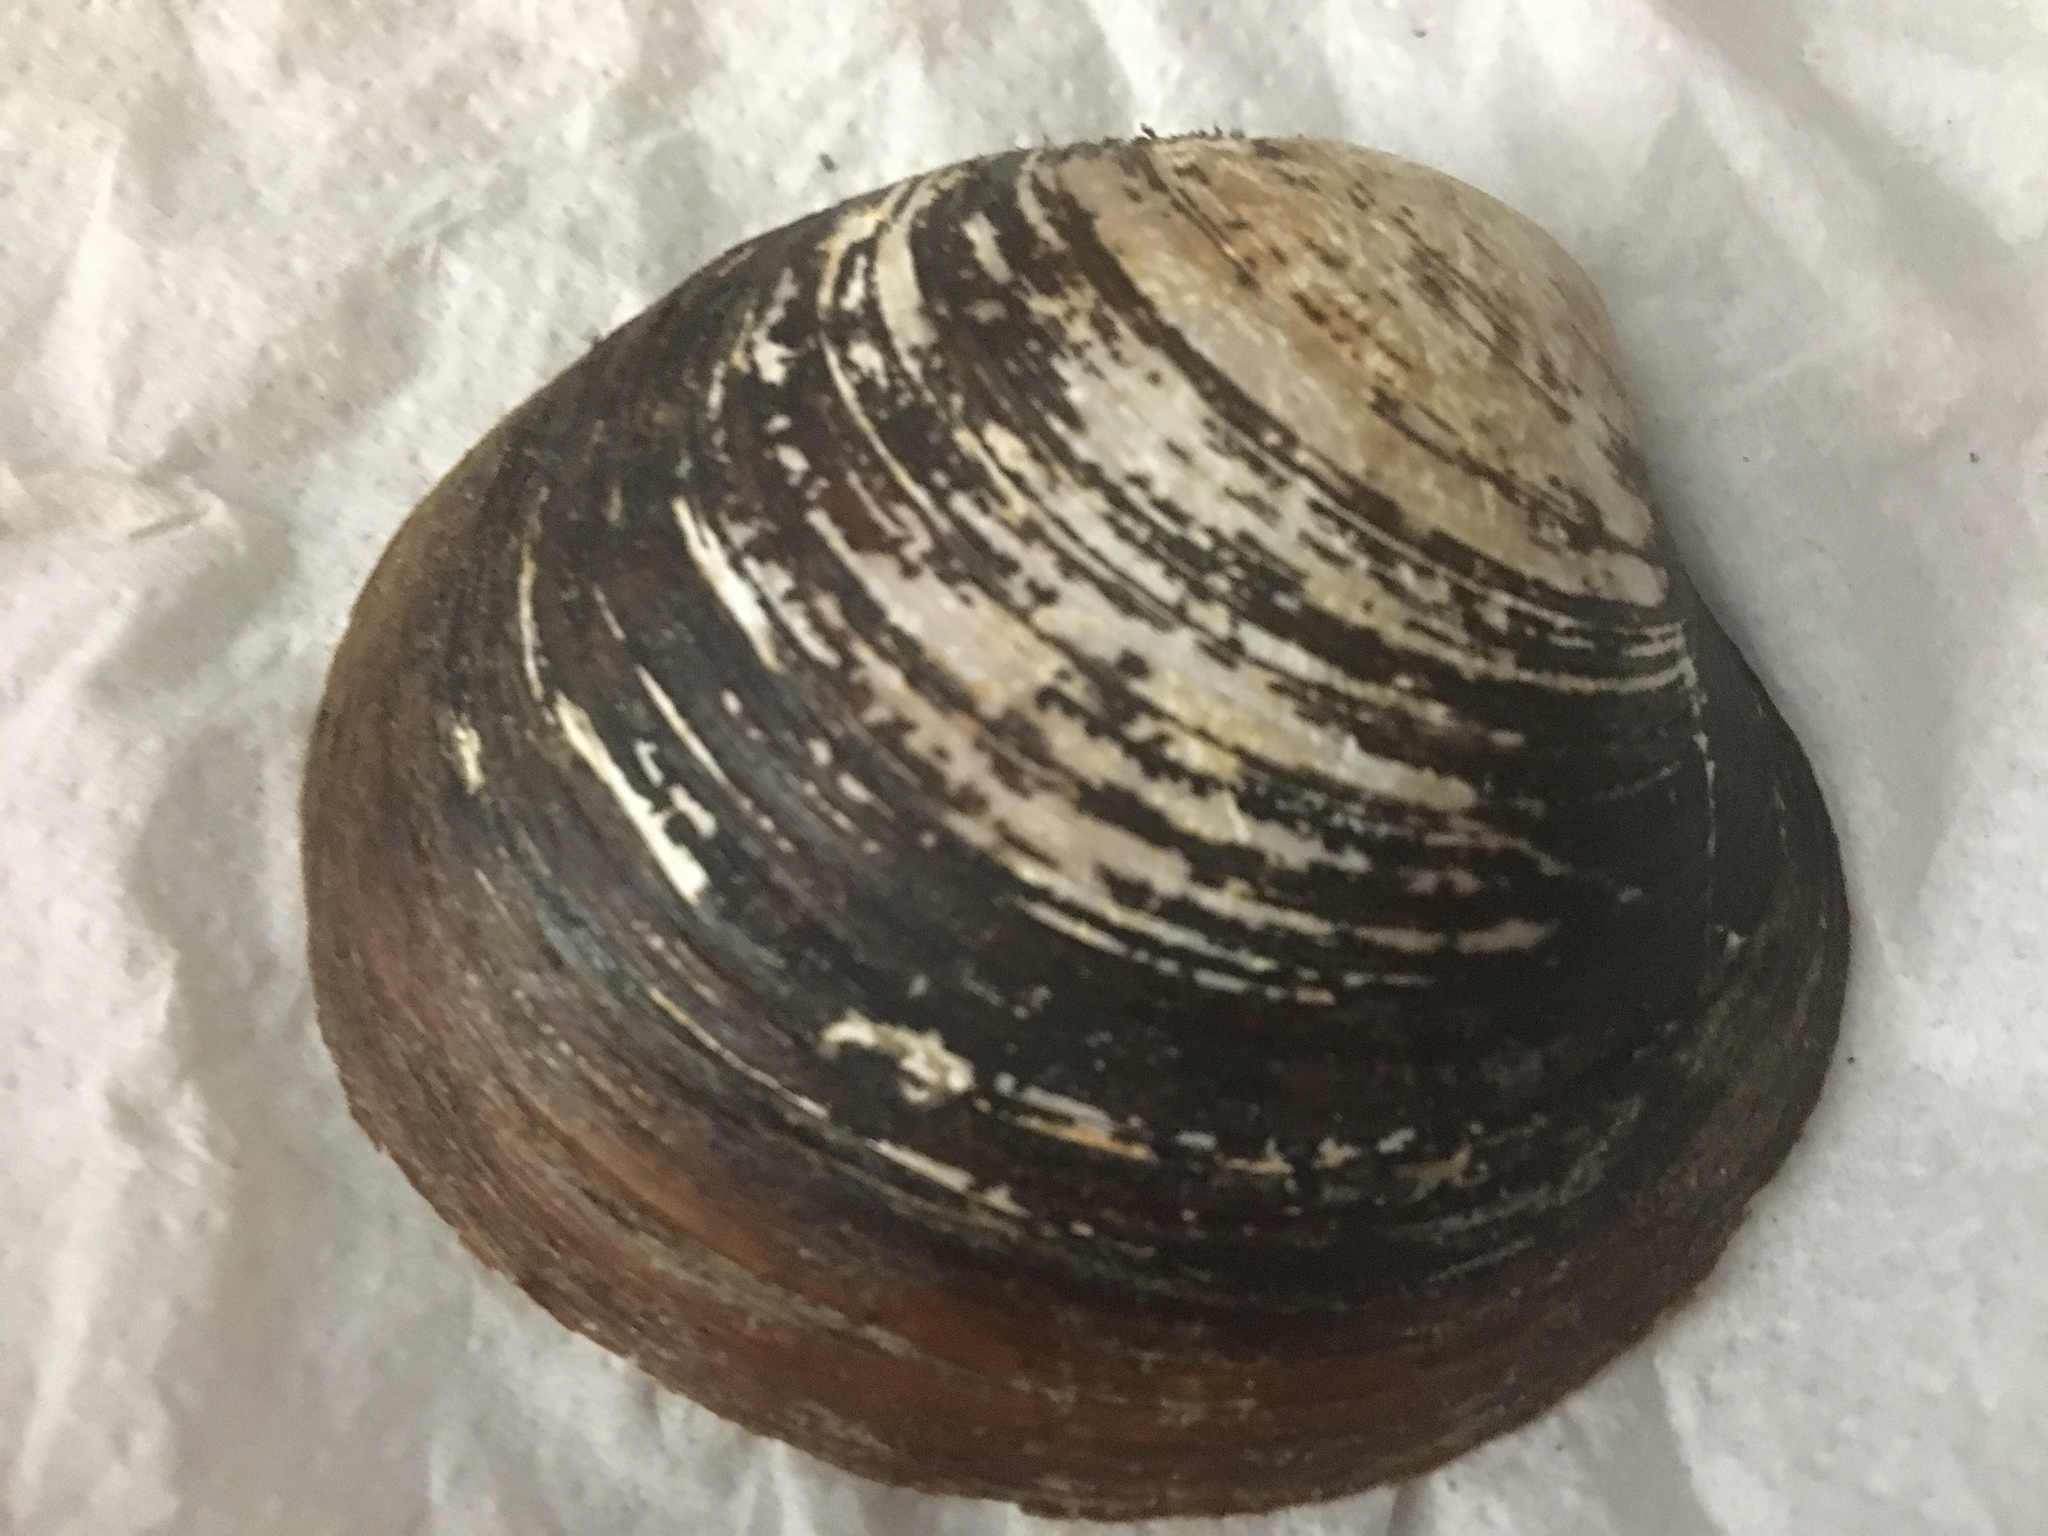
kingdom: Animalia
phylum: Mollusca
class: Bivalvia
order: Venerida
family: Arcticidae
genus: Arctica
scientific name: Arctica islandica
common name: Icelandic cyprine
